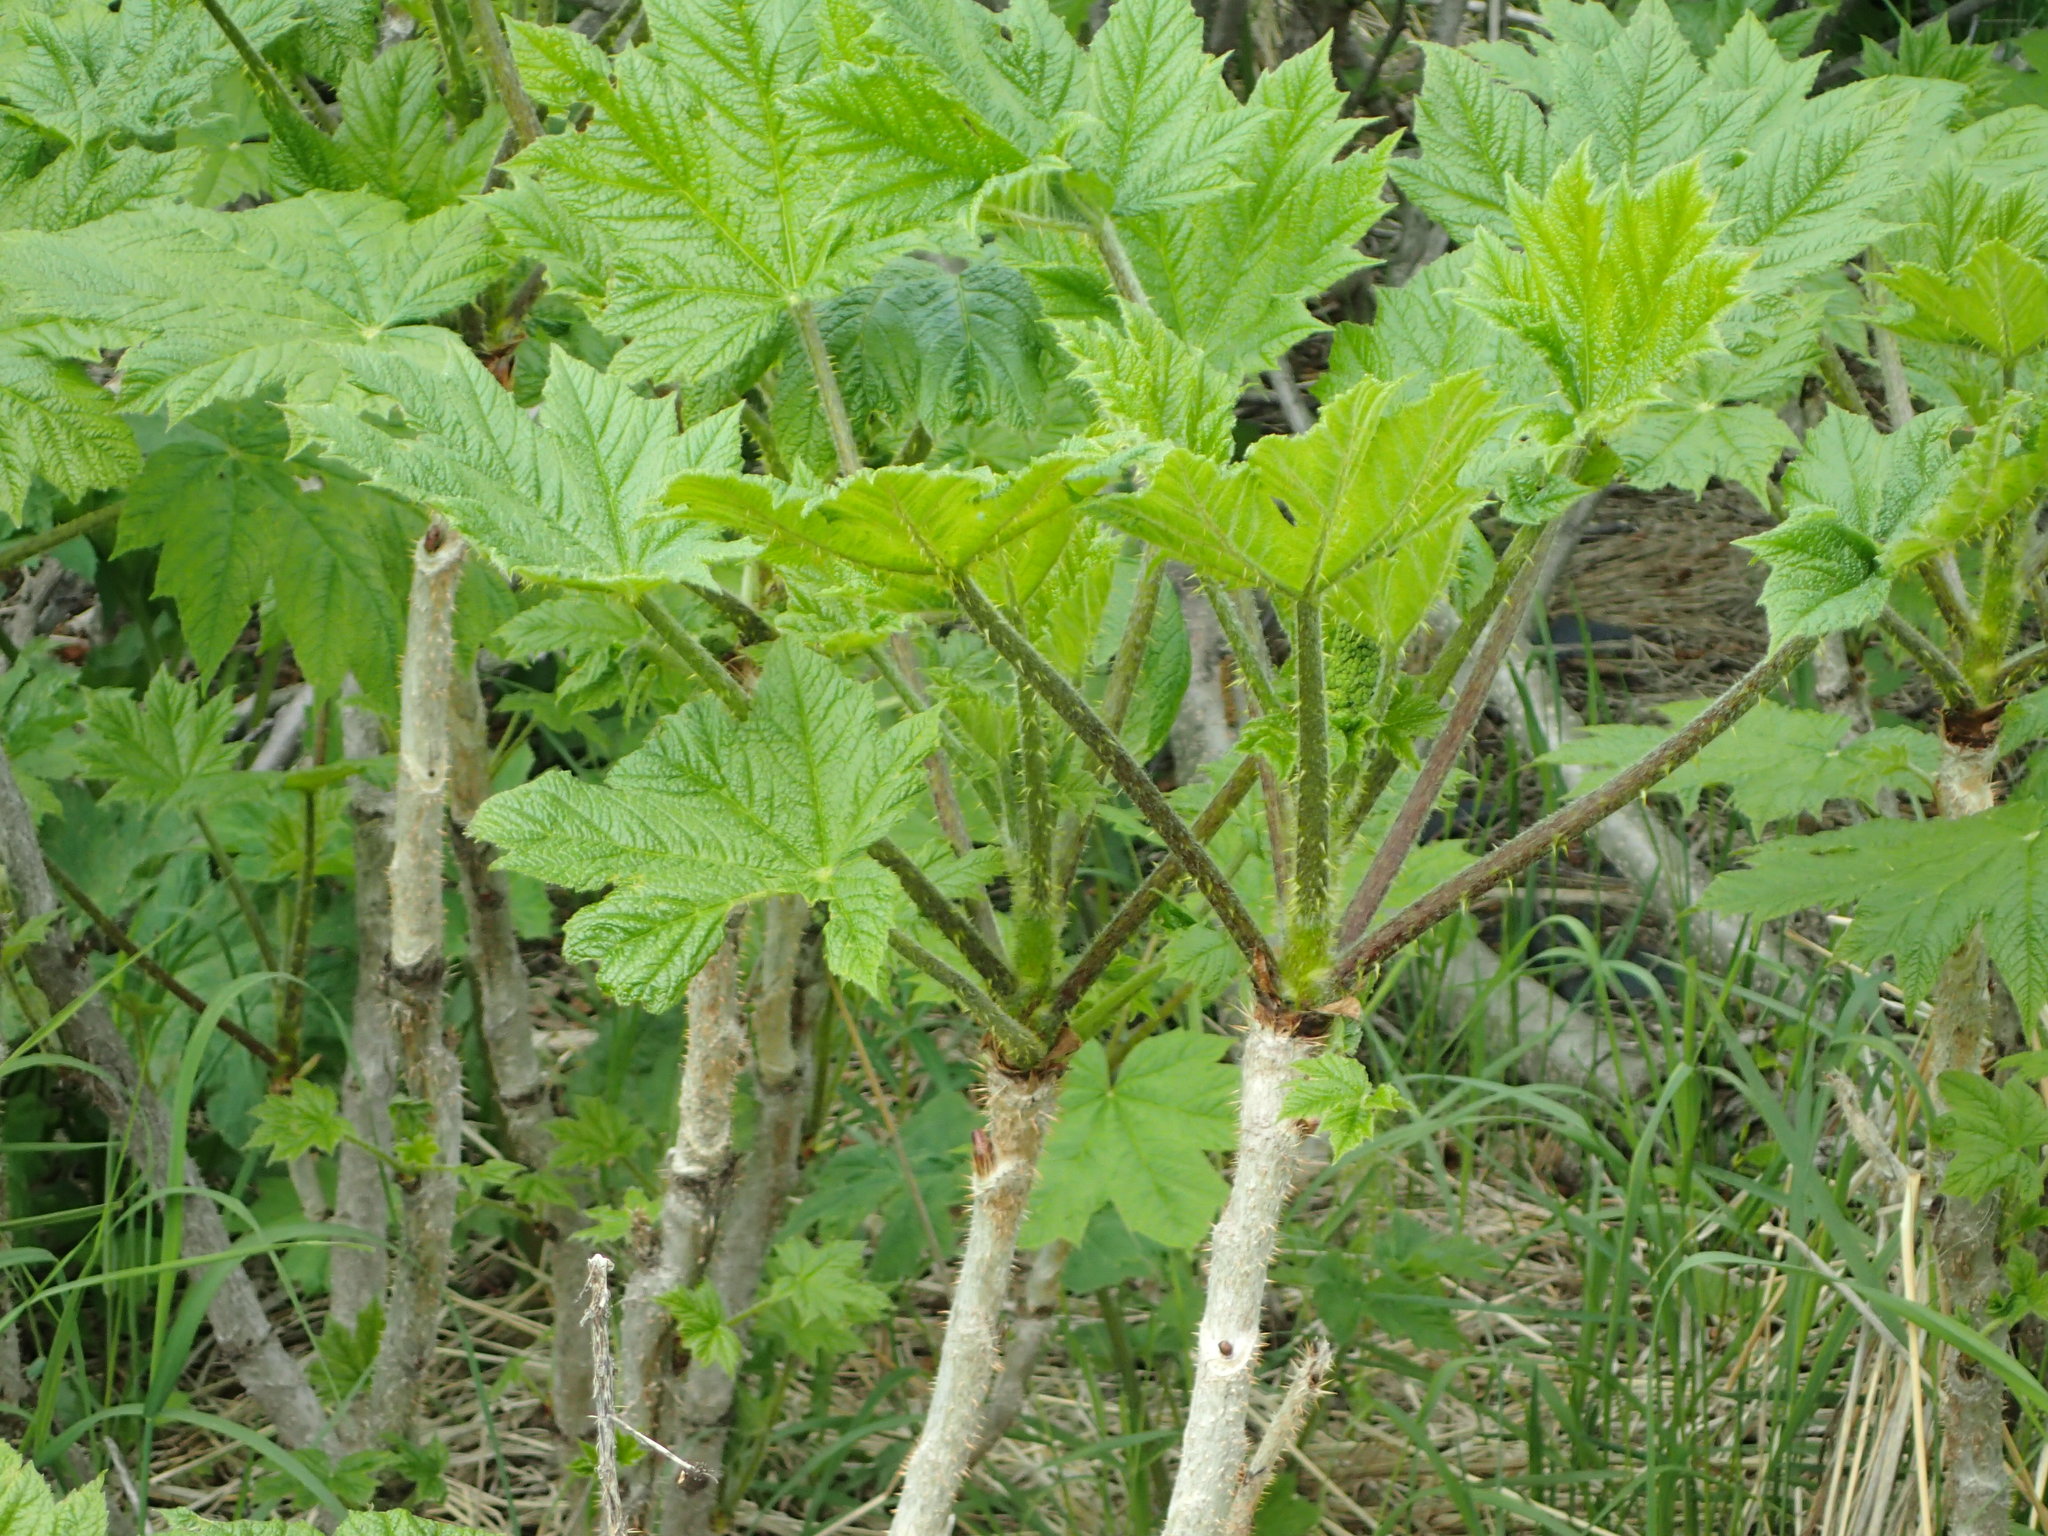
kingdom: Plantae
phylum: Tracheophyta
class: Magnoliopsida
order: Apiales
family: Araliaceae
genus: Oplopanax
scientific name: Oplopanax horridus
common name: Devil's walking-stick
